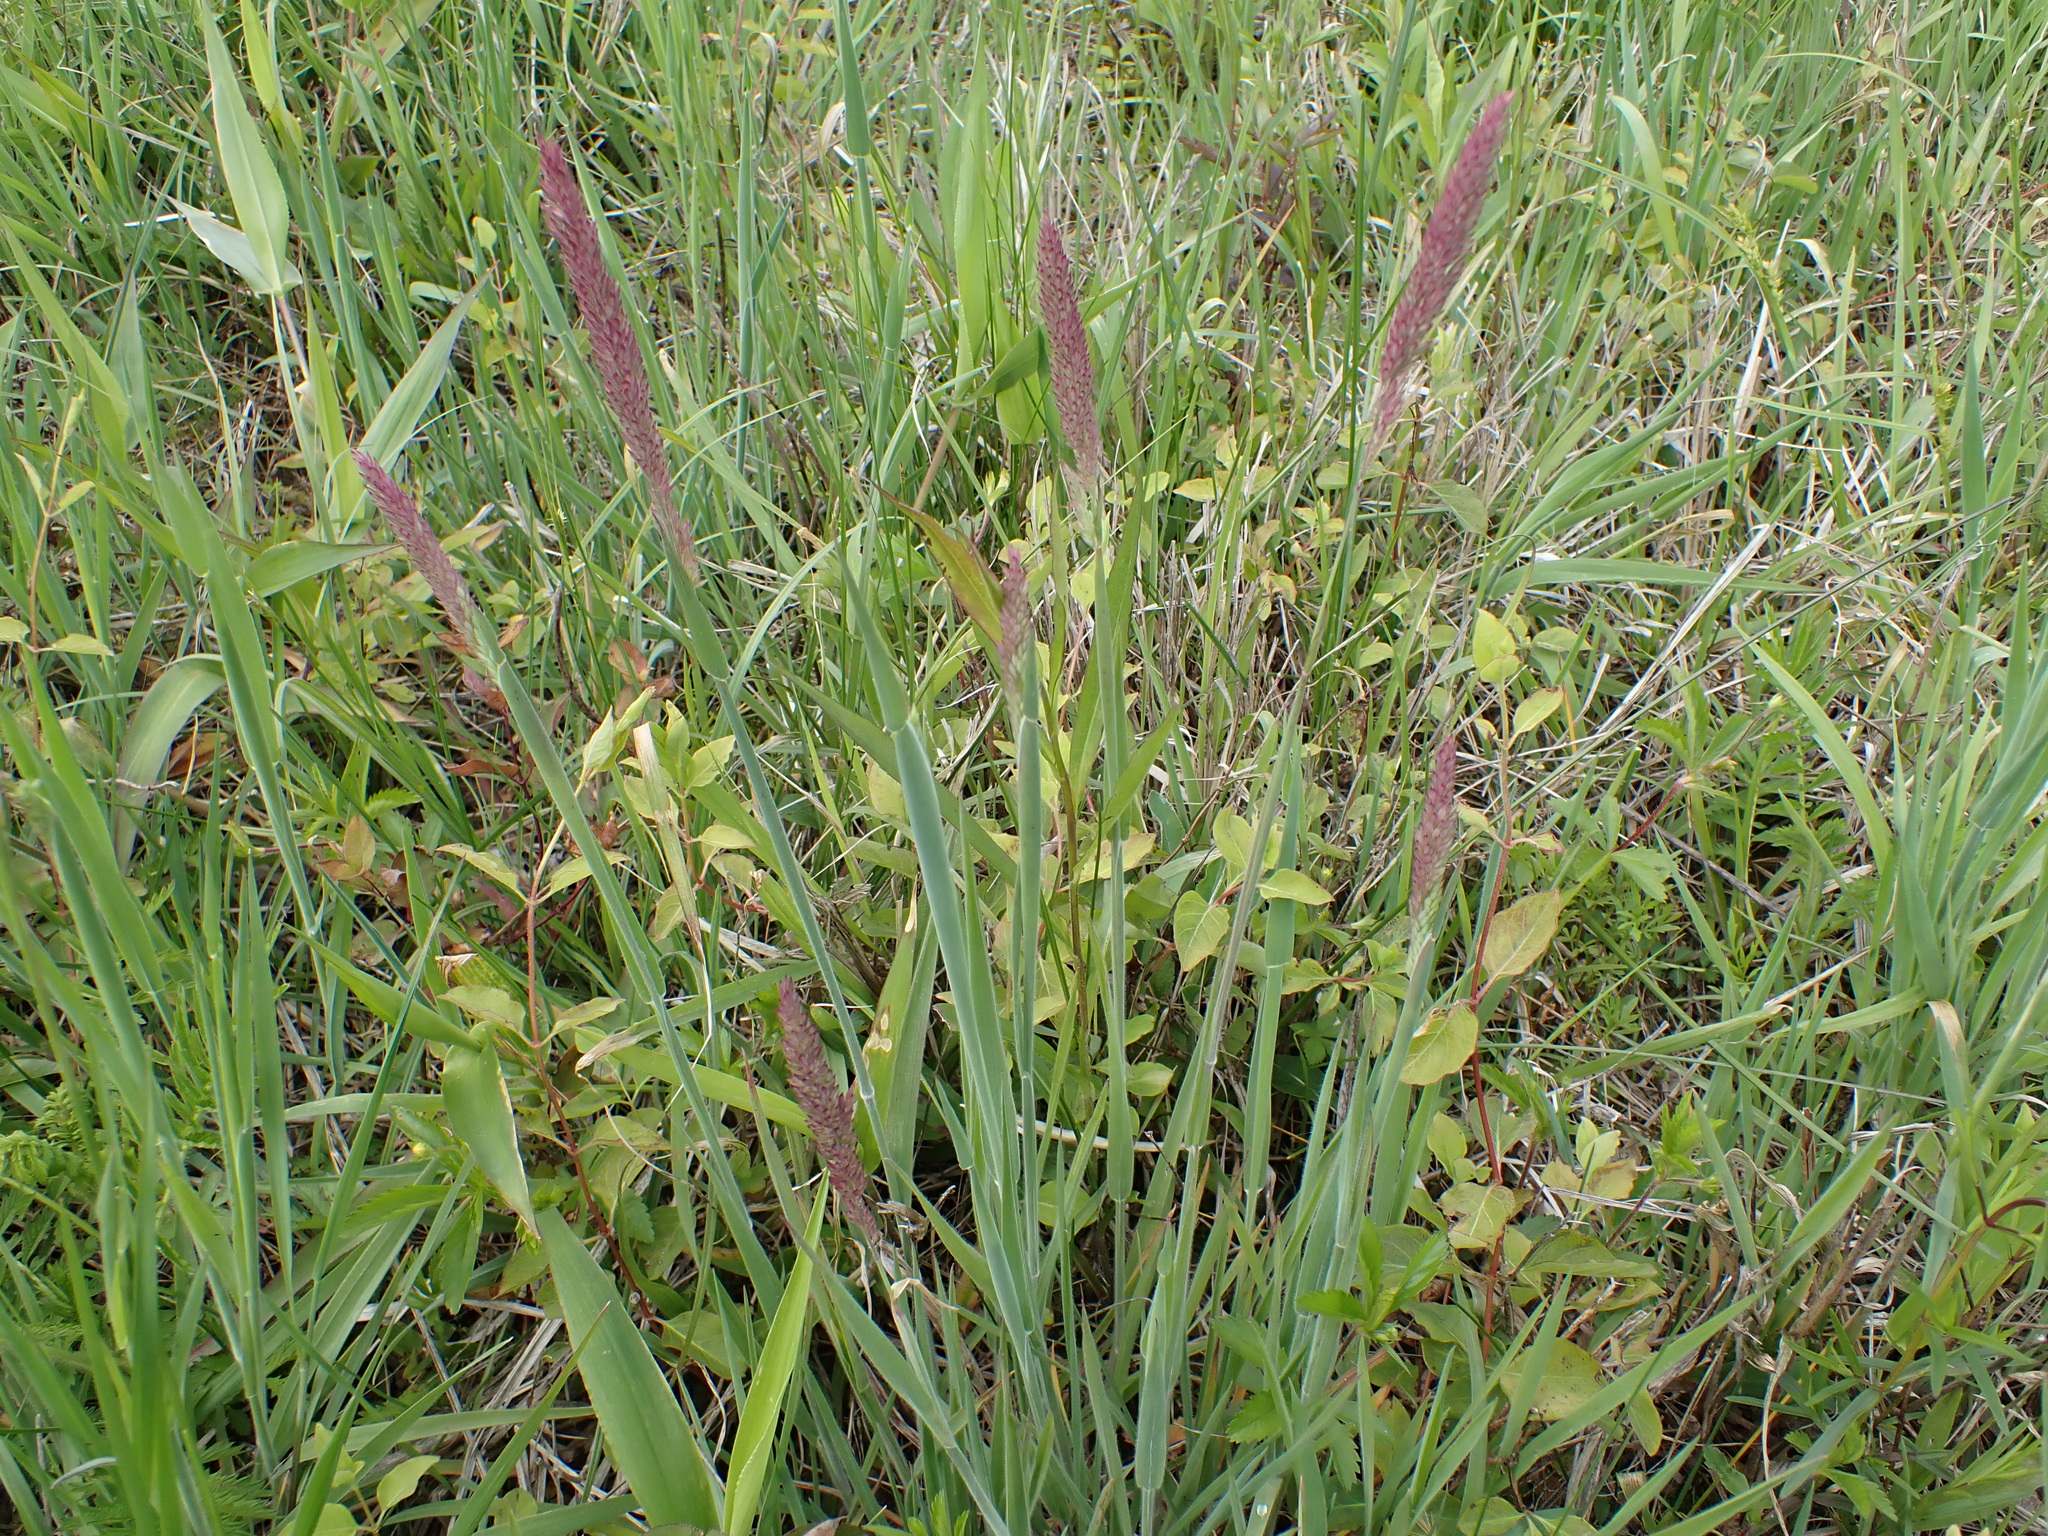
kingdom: Plantae
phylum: Tracheophyta
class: Liliopsida
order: Poales
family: Poaceae
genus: Holcus
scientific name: Holcus lanatus
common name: Yorkshire-fog
